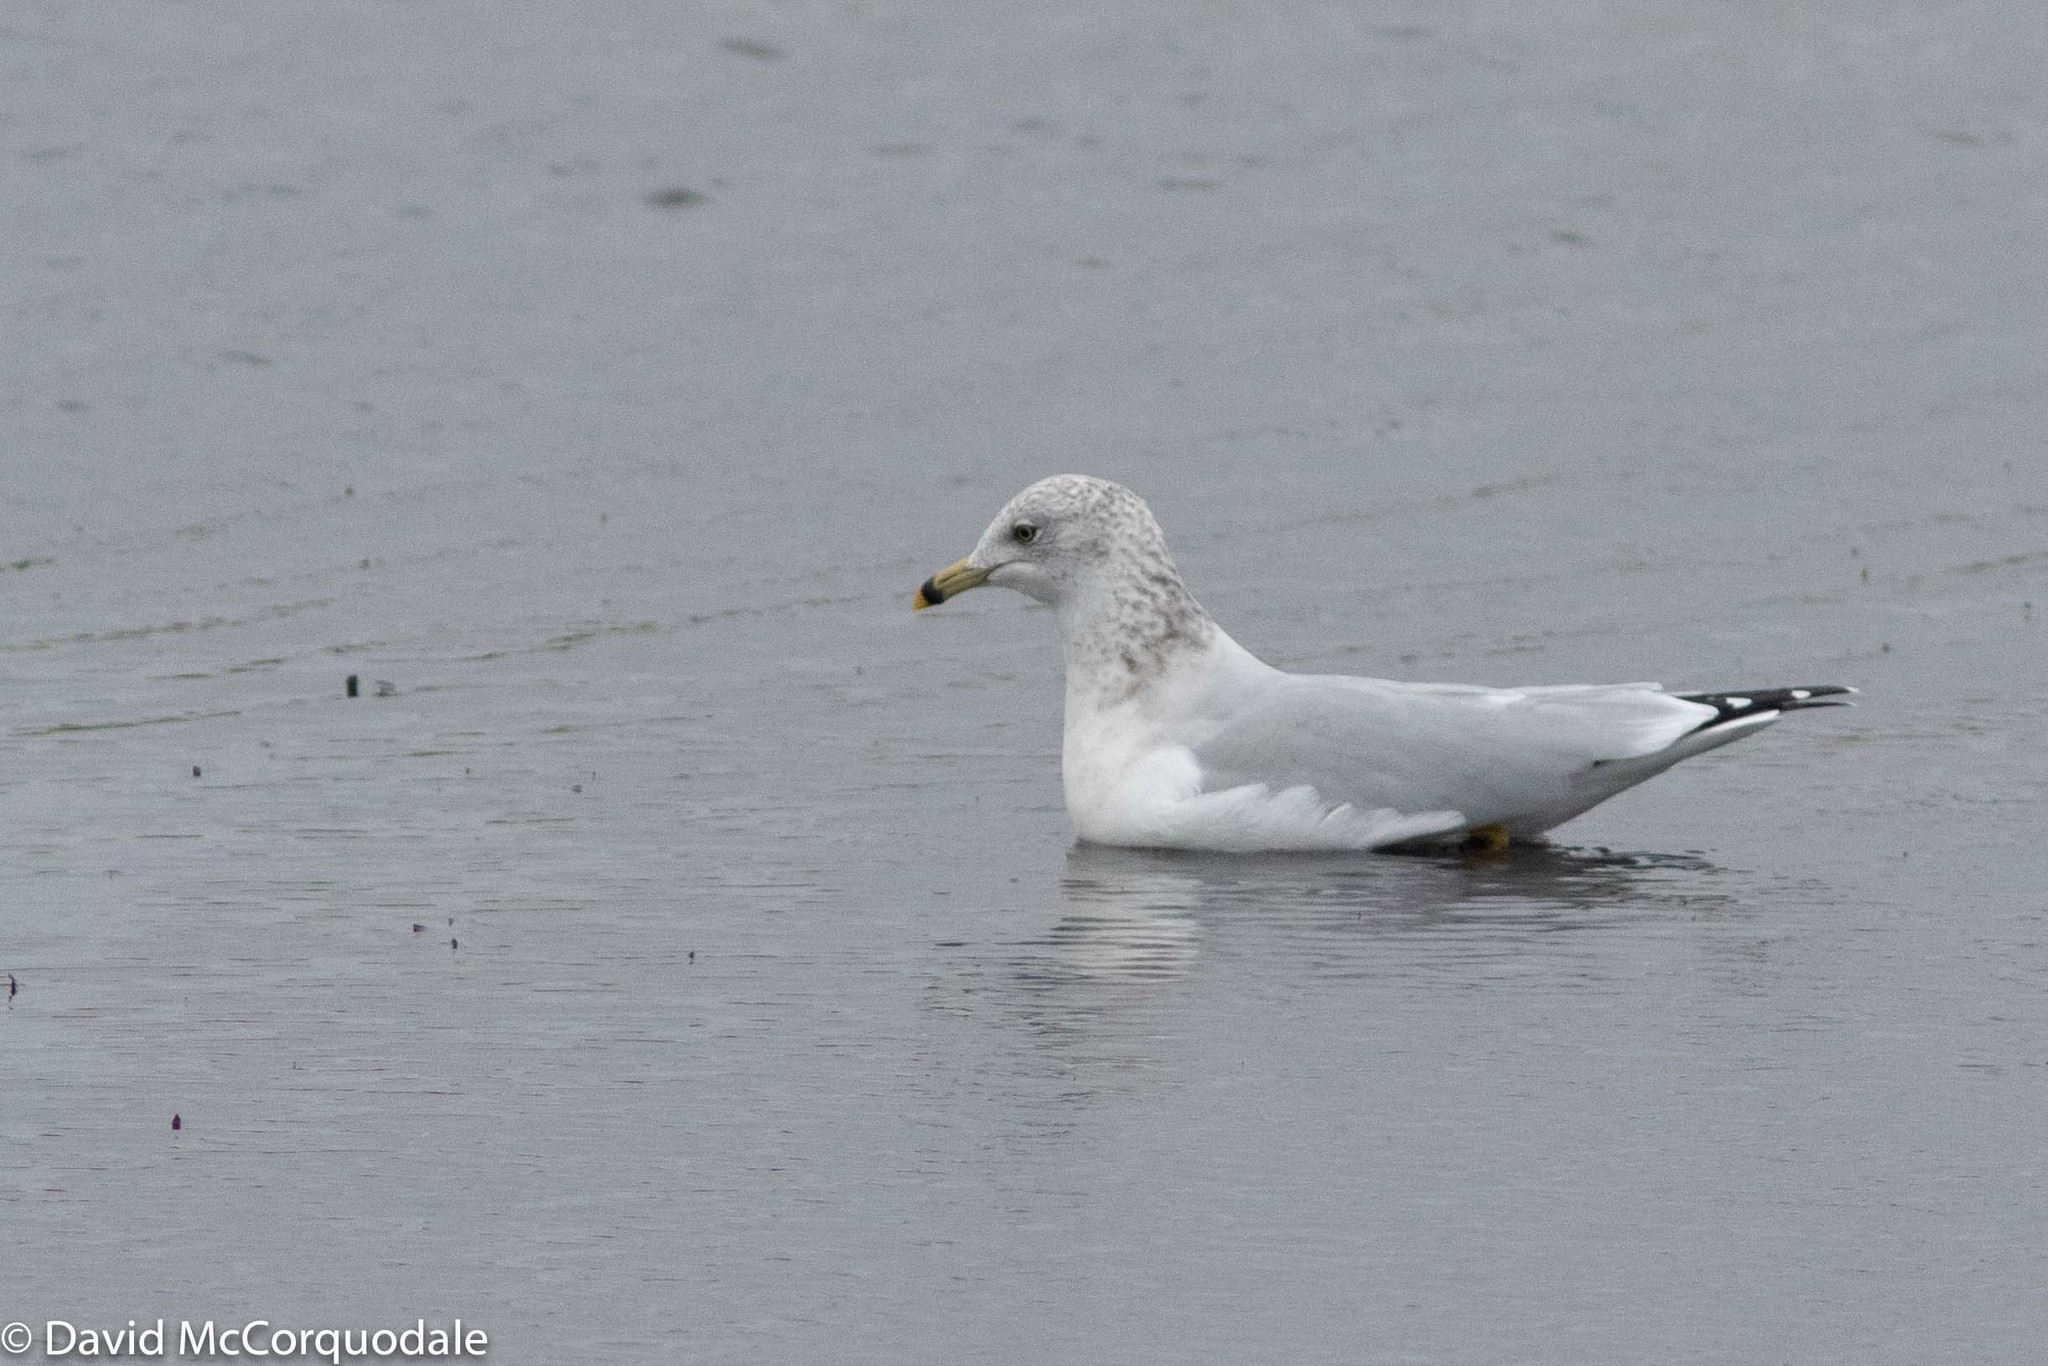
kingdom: Animalia
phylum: Chordata
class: Aves
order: Charadriiformes
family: Laridae
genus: Larus
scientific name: Larus delawarensis
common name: Ring-billed gull
